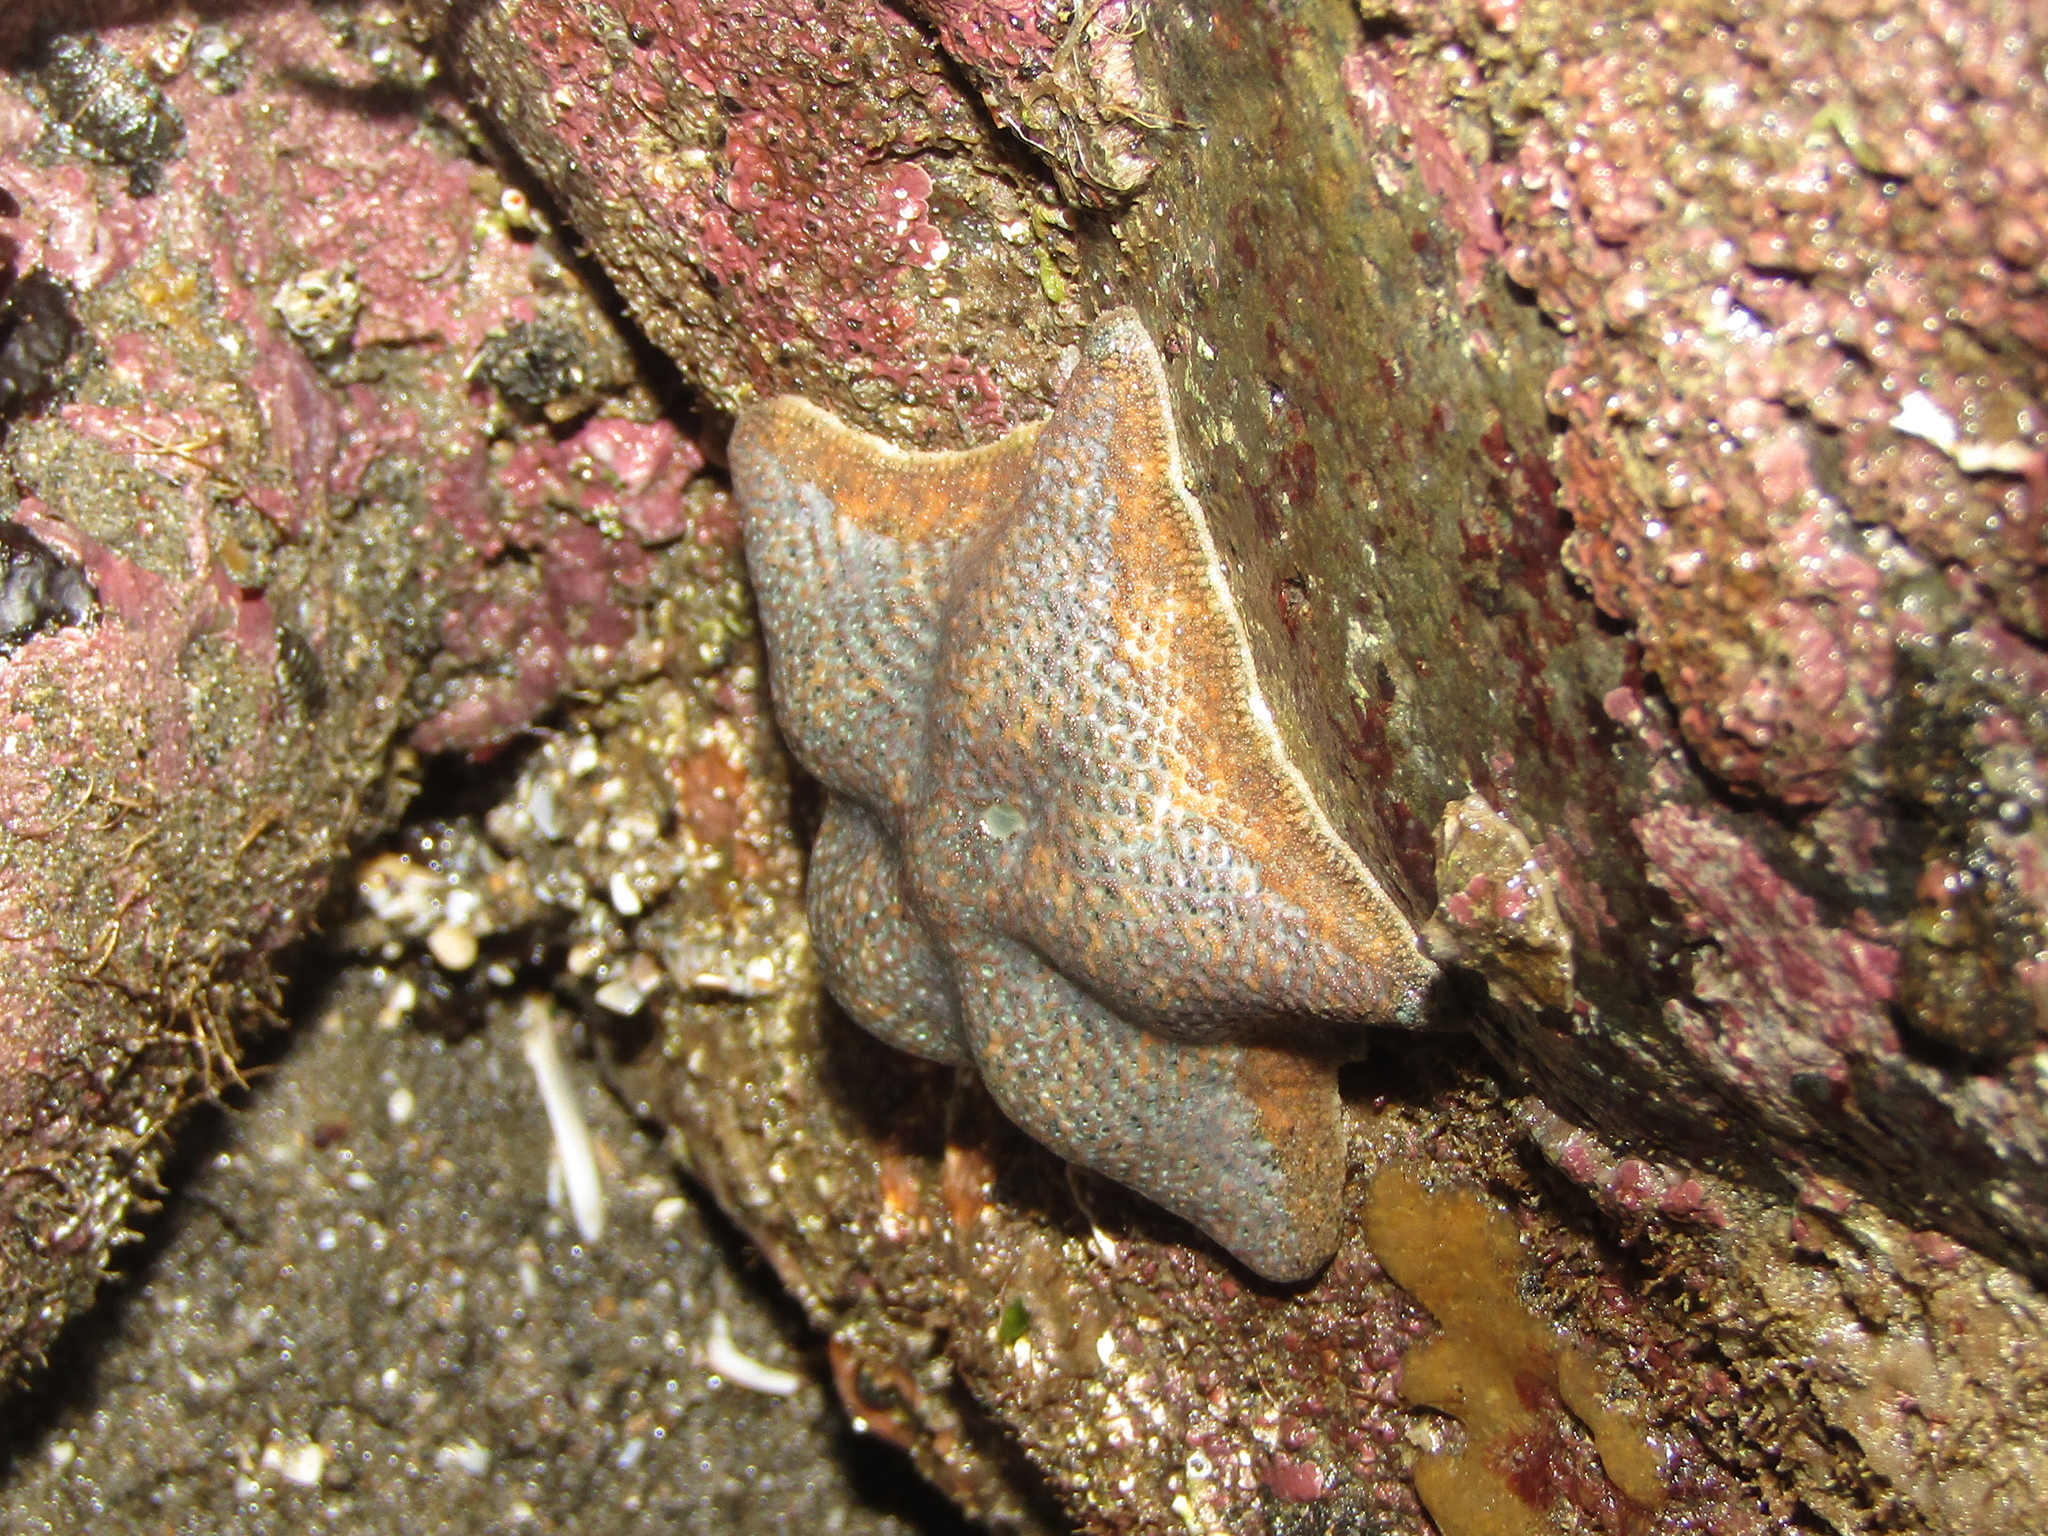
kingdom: Animalia
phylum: Echinodermata
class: Asteroidea
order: Valvatida
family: Asterinidae
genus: Patiriella
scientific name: Patiriella regularis
